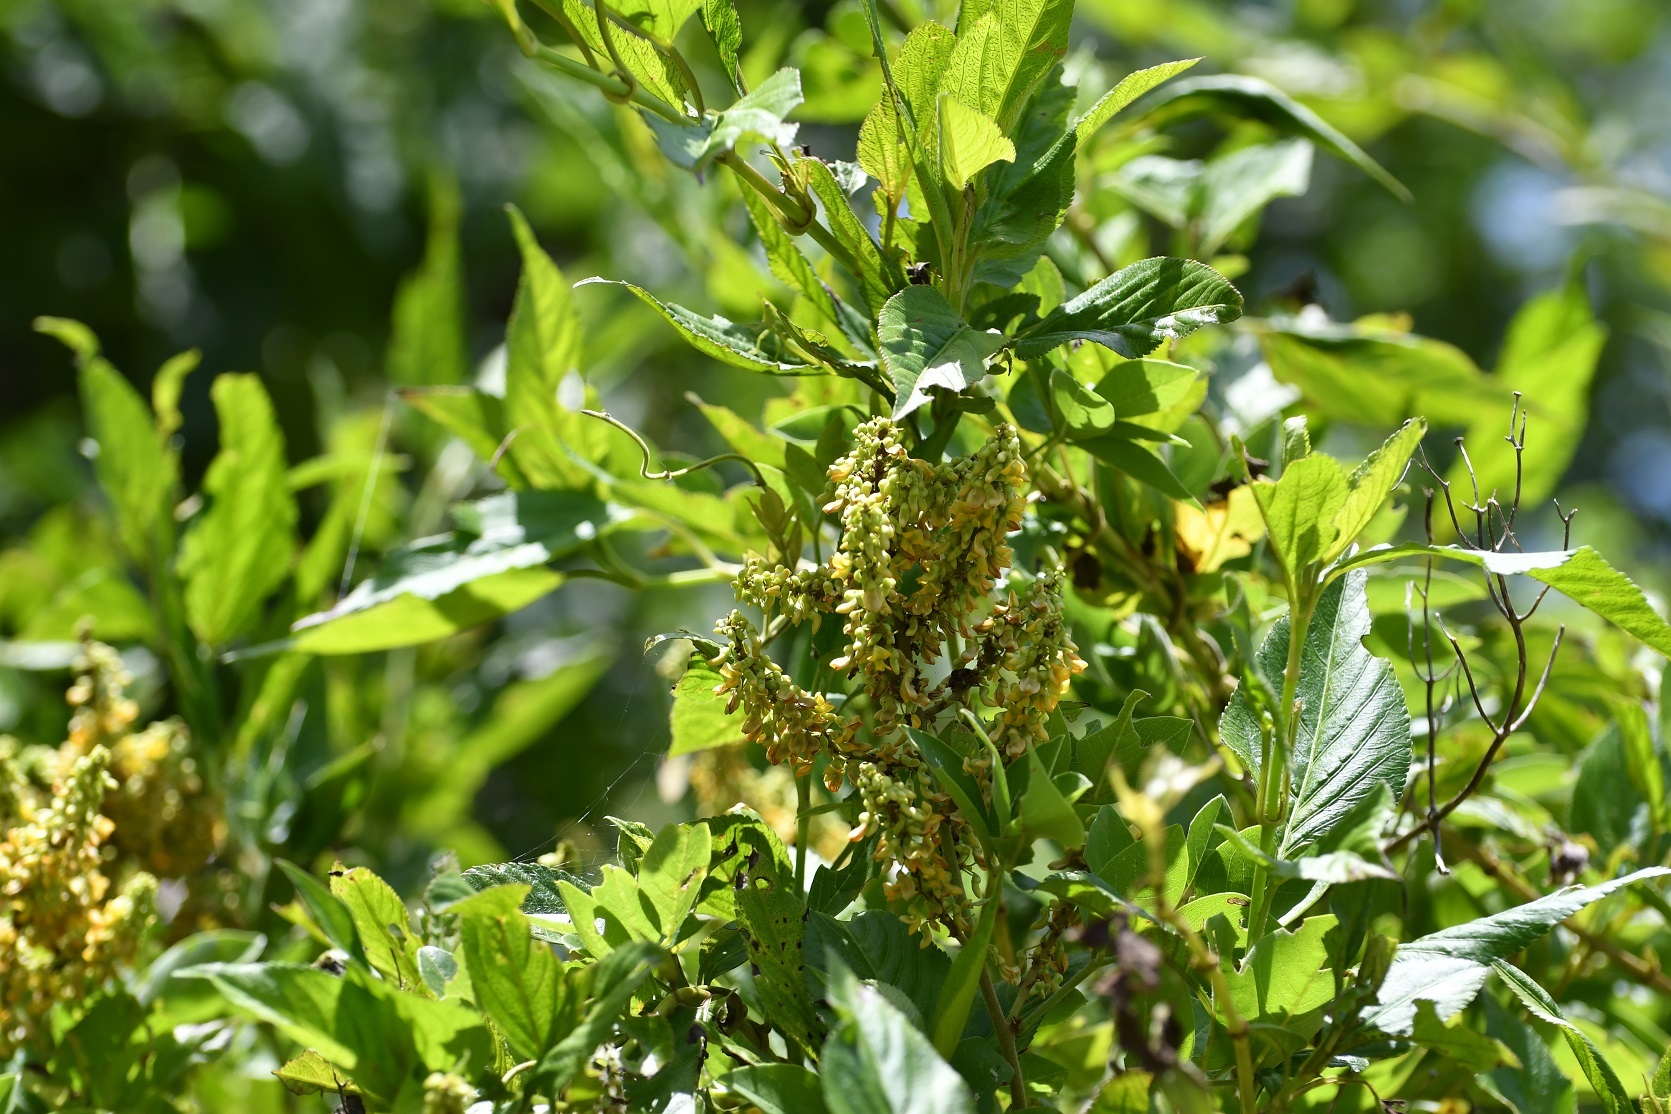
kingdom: Plantae
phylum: Tracheophyta
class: Magnoliopsida
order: Fabales
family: Fabaceae
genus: Nissolia
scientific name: Nissolia fruticosa
